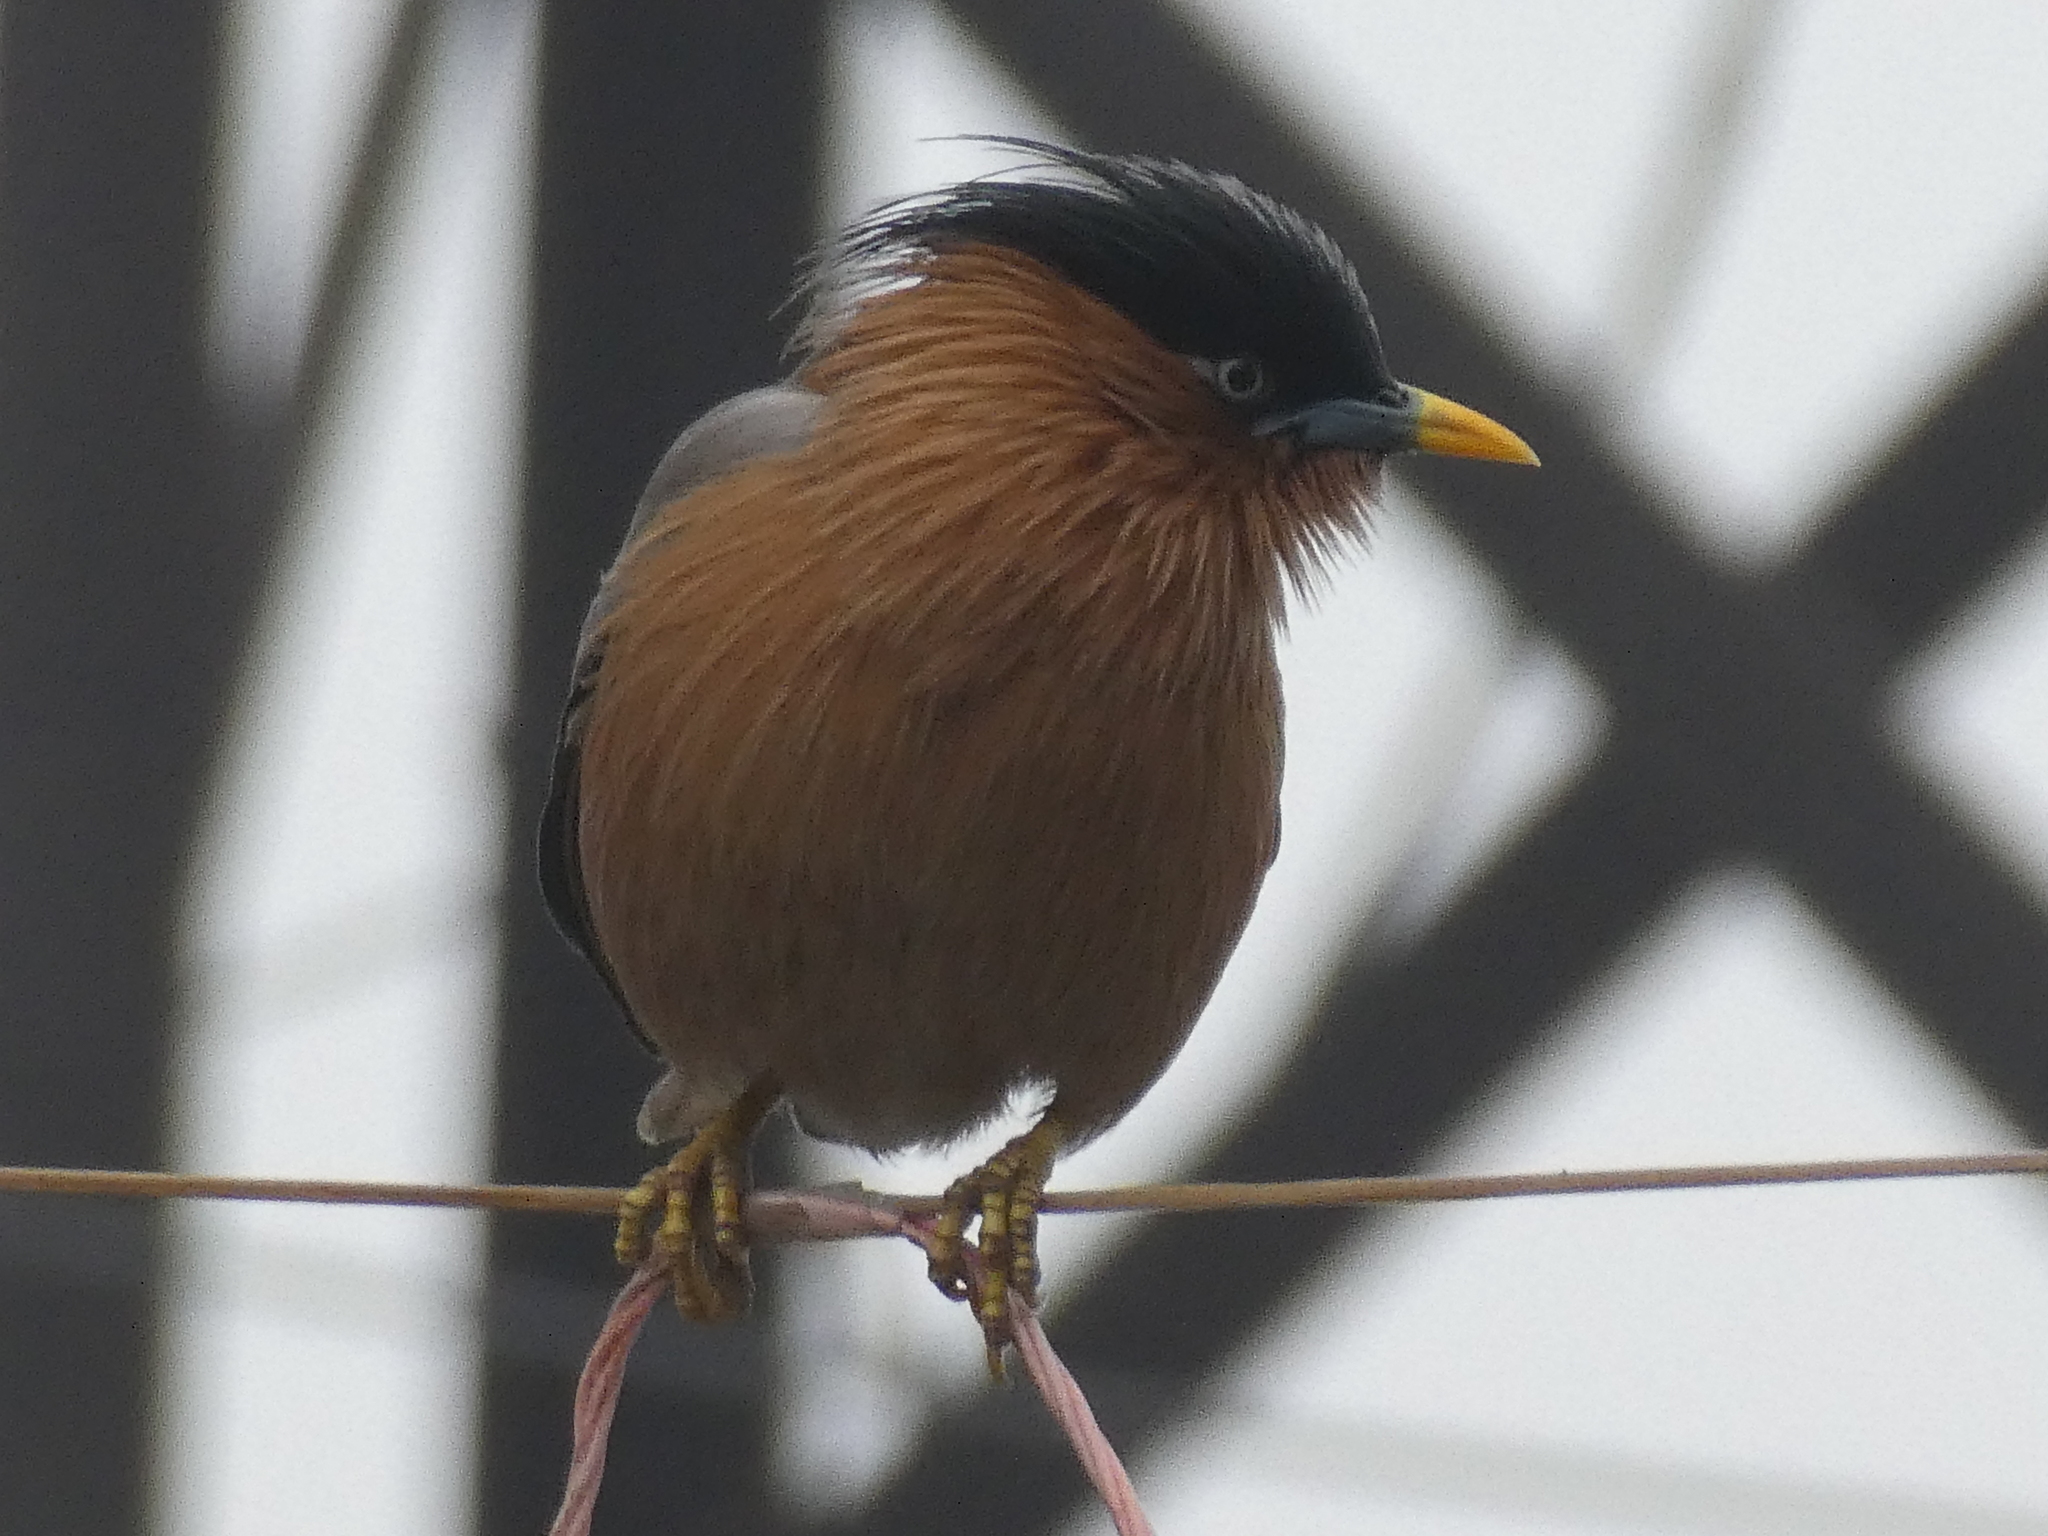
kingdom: Animalia
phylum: Chordata
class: Aves
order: Passeriformes
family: Sturnidae
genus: Sturnia
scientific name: Sturnia pagodarum
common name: Brahminy starling
